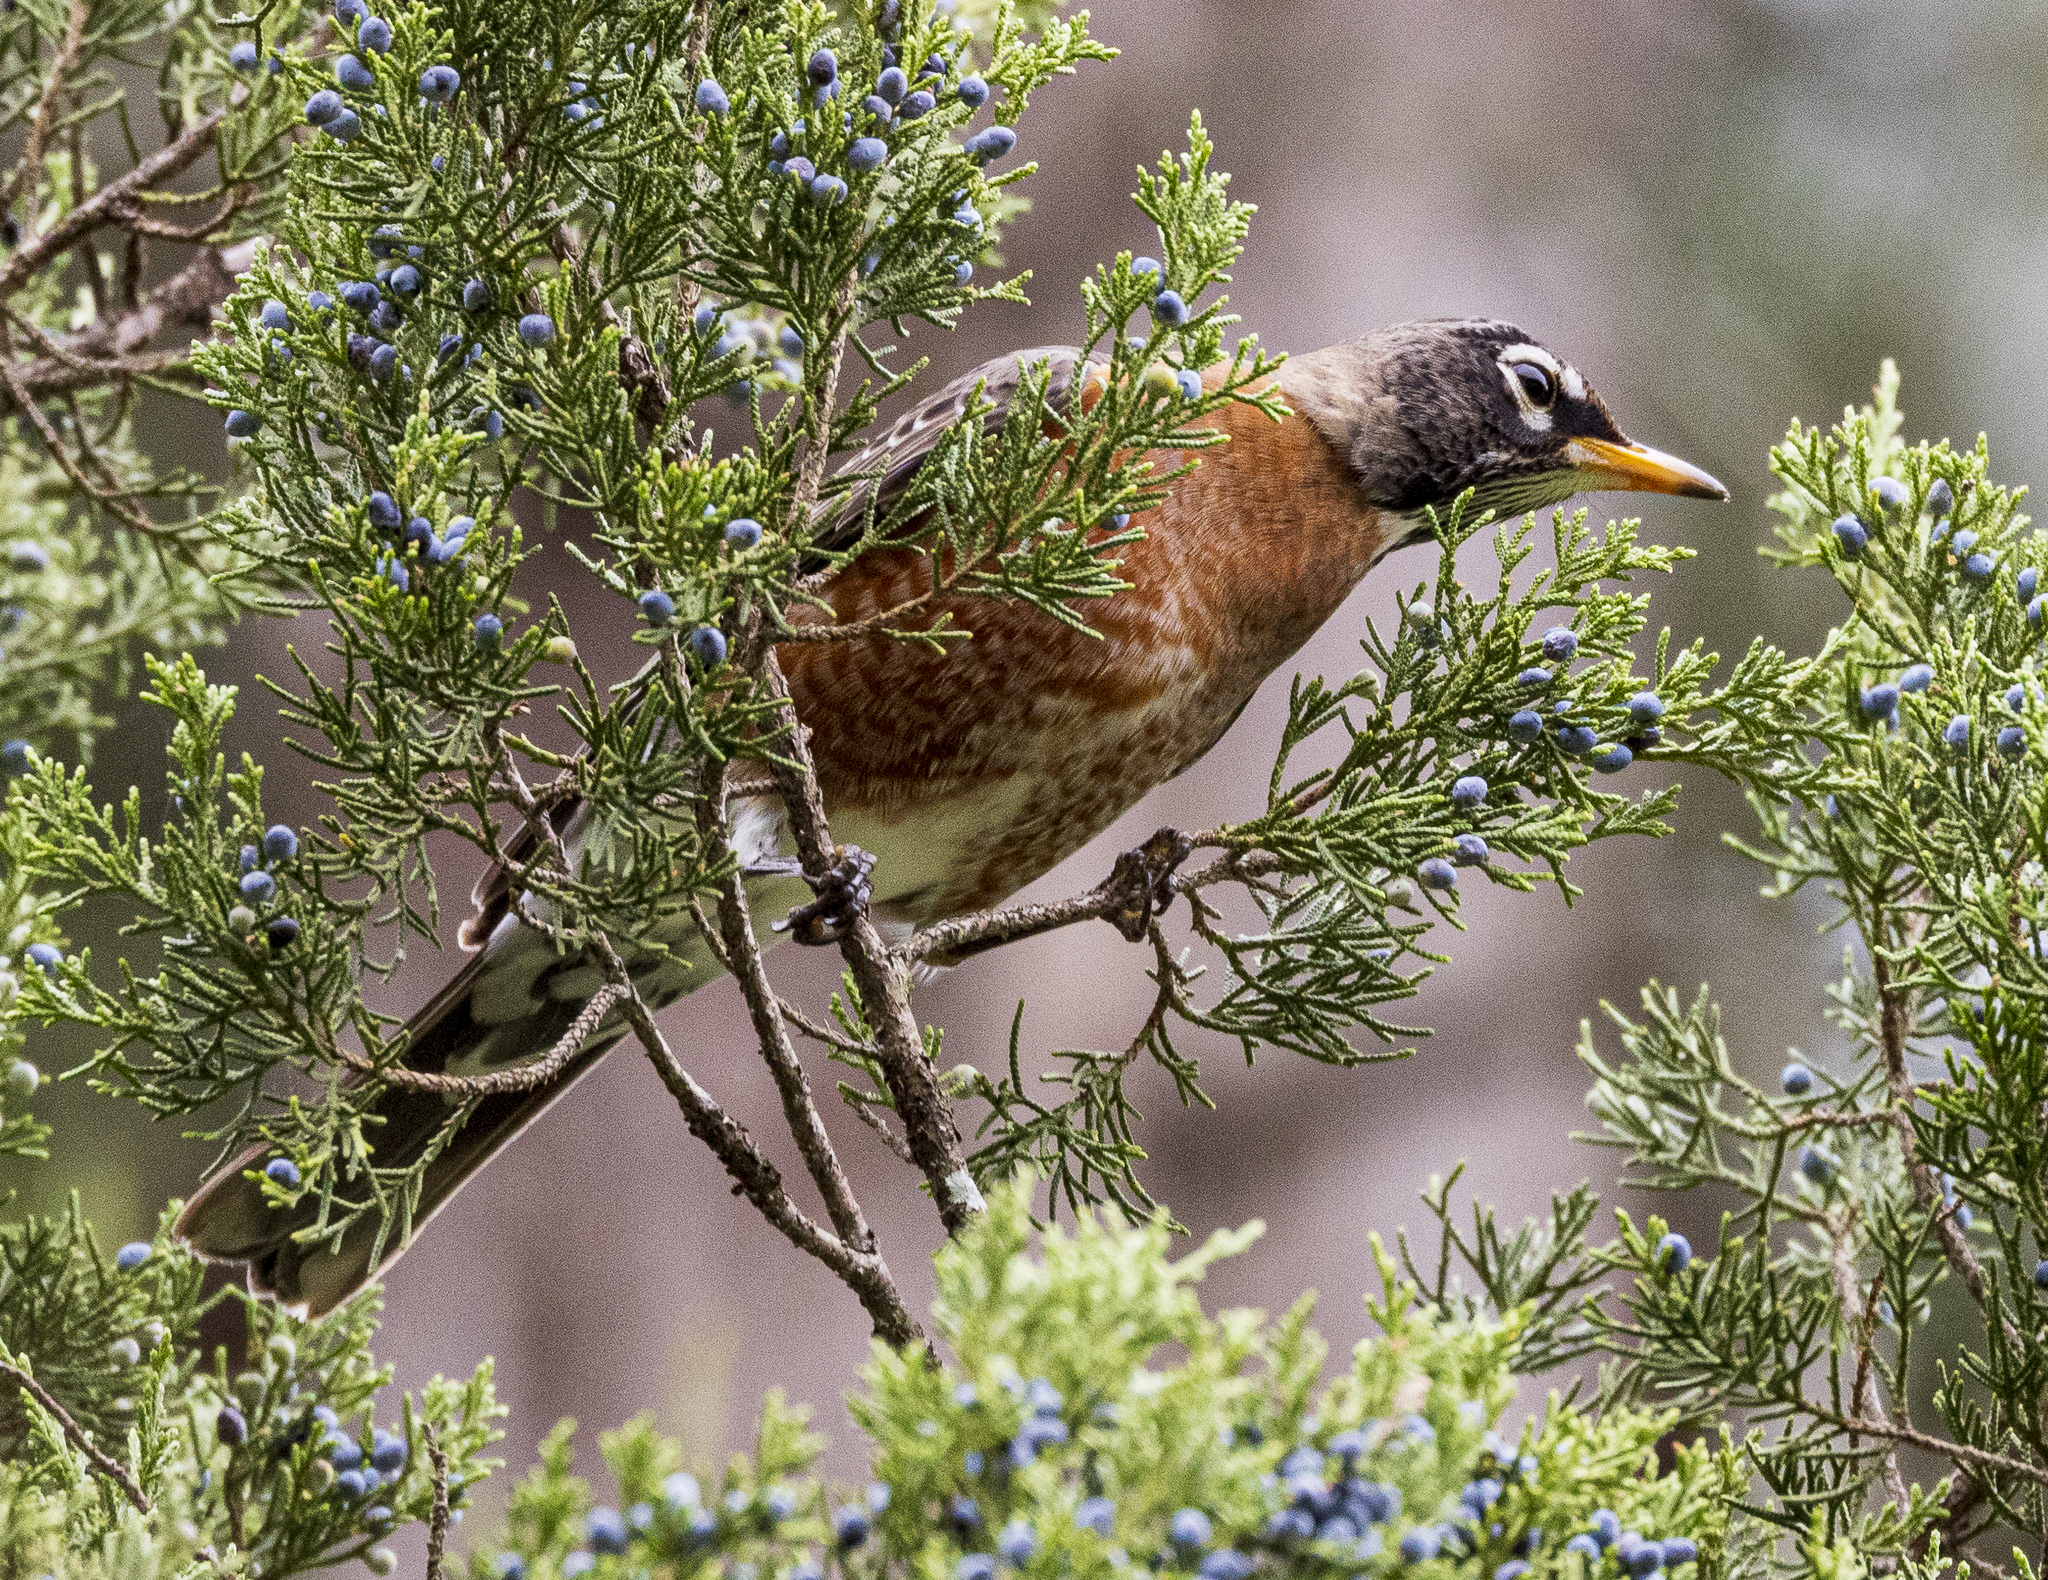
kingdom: Animalia
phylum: Chordata
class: Aves
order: Passeriformes
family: Turdidae
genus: Turdus
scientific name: Turdus migratorius
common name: American robin
